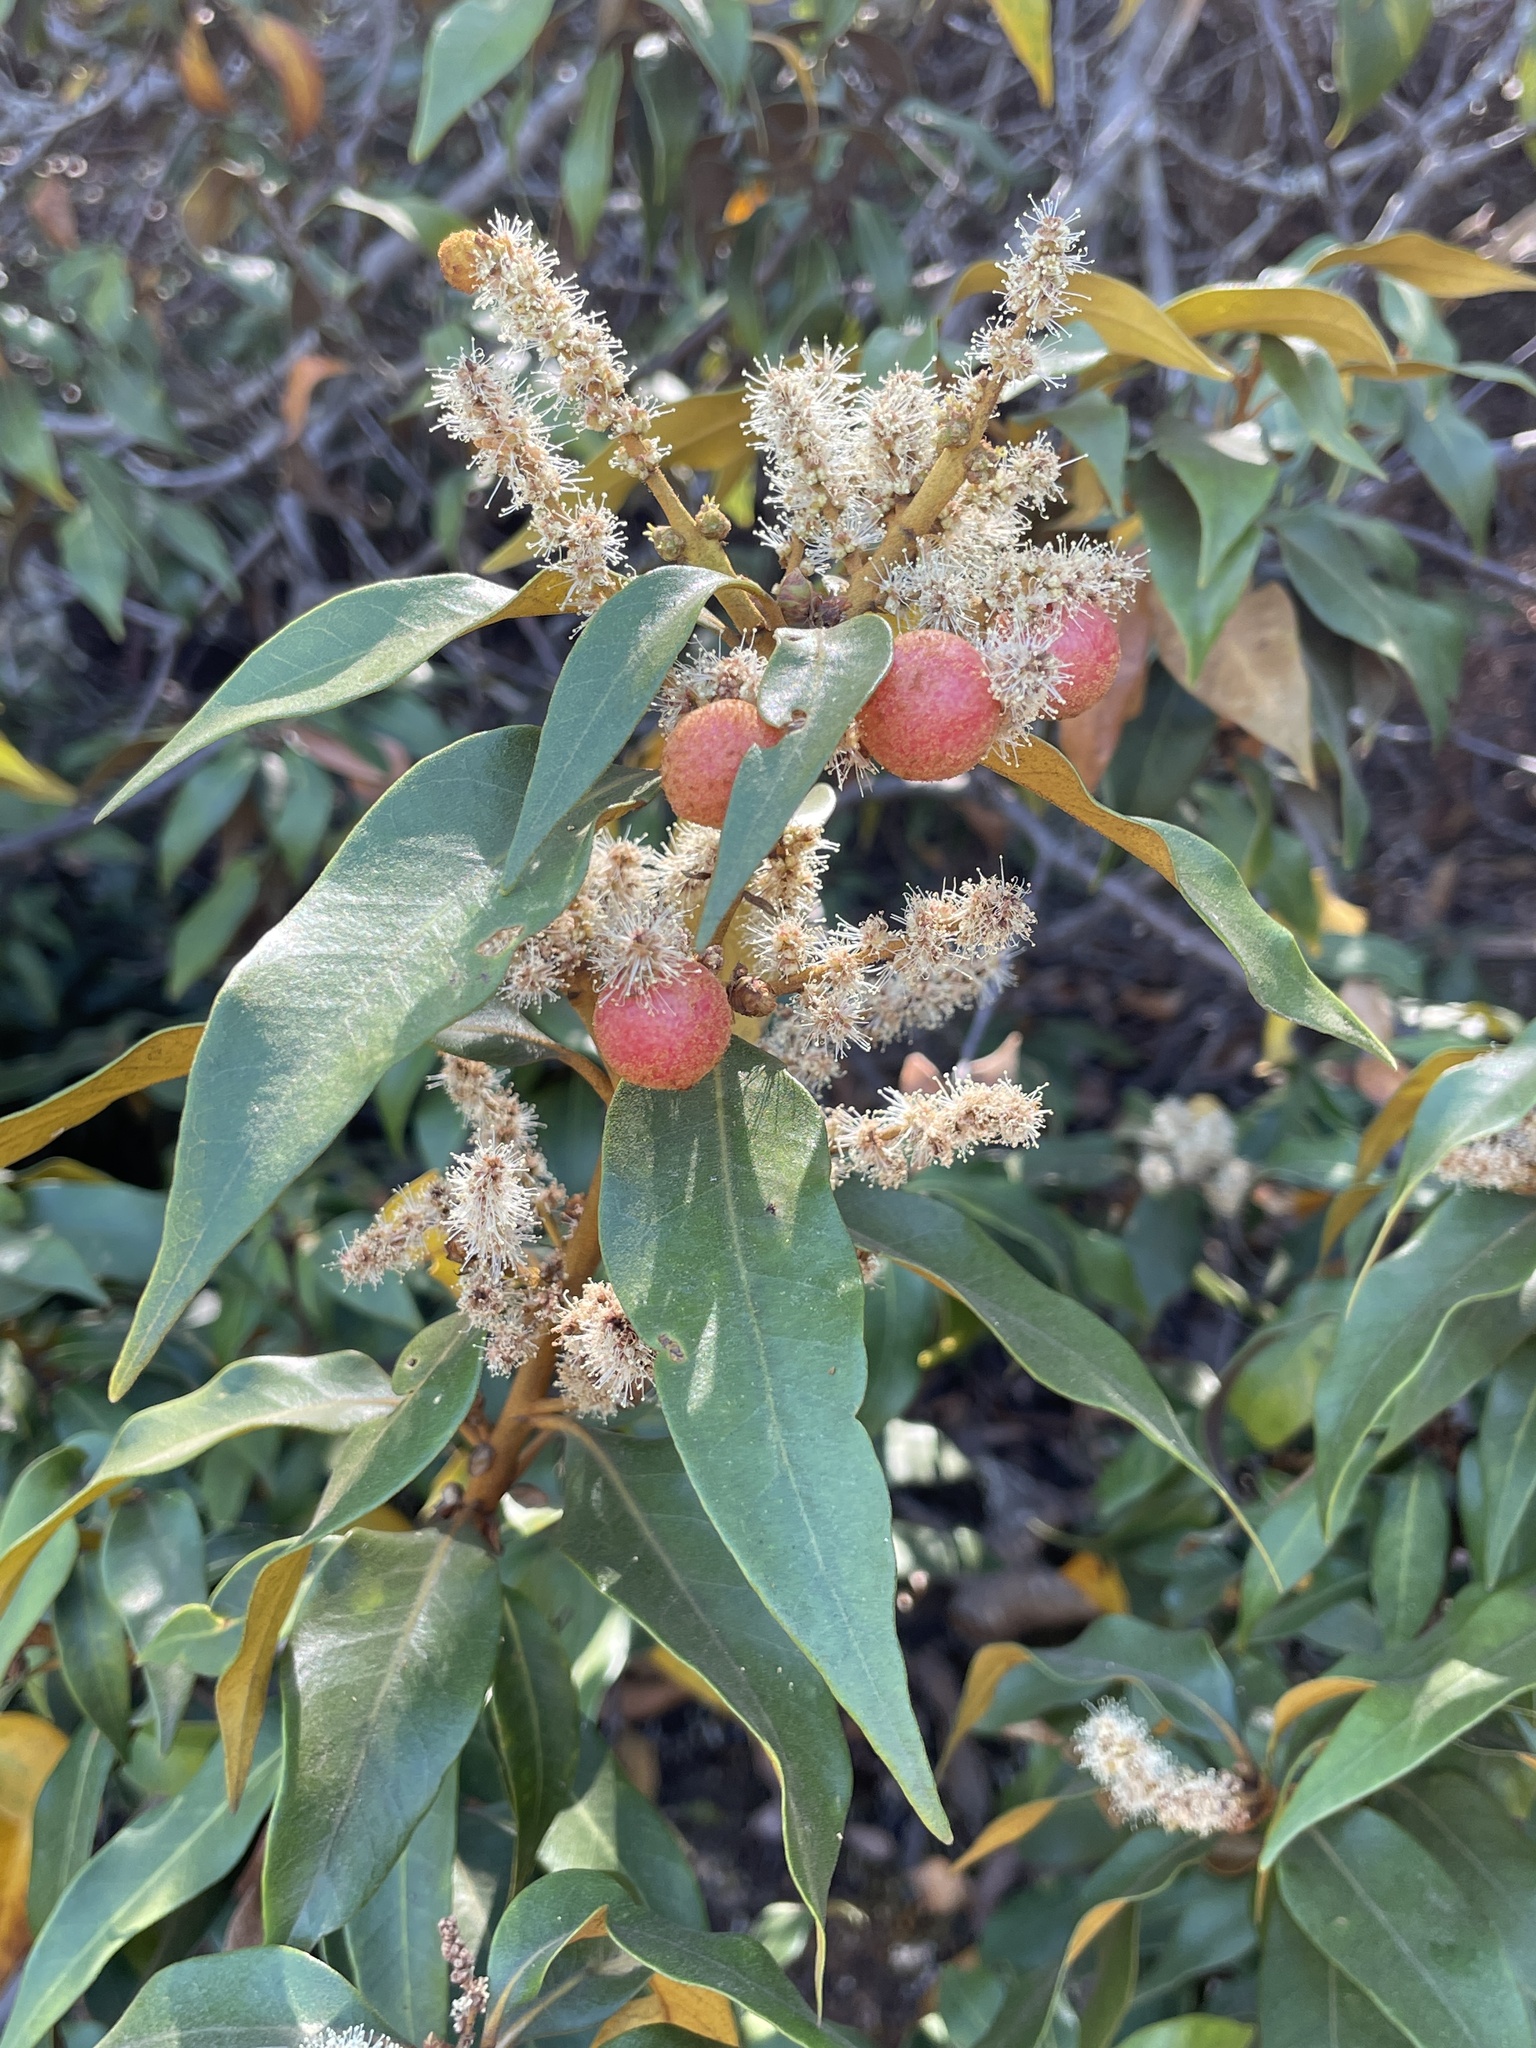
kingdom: Plantae
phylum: Tracheophyta
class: Magnoliopsida
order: Fagales
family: Fagaceae
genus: Chrysolepis
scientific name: Chrysolepis chrysophylla
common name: Giant chinquapin
